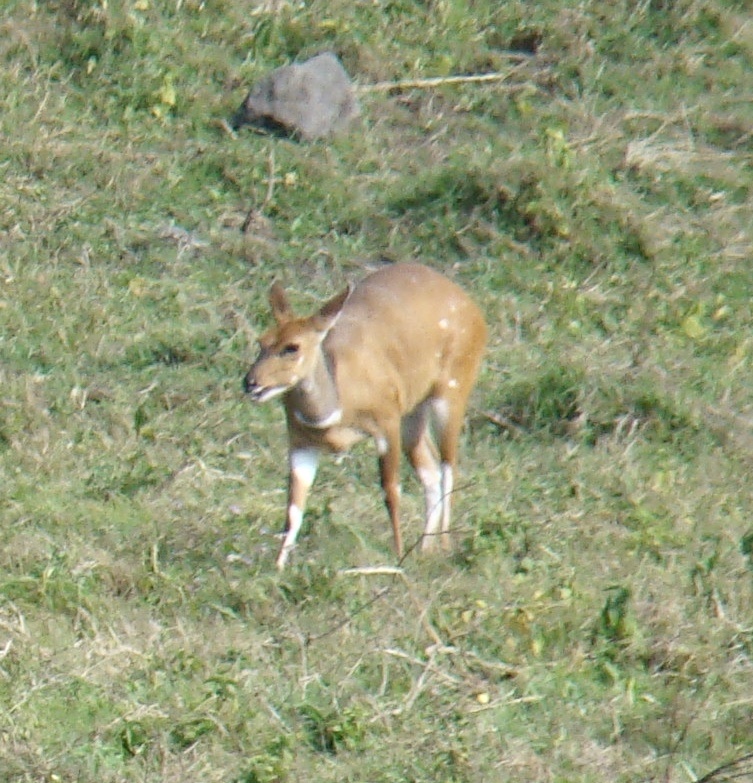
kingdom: Animalia
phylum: Chordata
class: Mammalia
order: Artiodactyla
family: Bovidae
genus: Tragelaphus
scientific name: Tragelaphus scriptus
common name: Bushbuck
